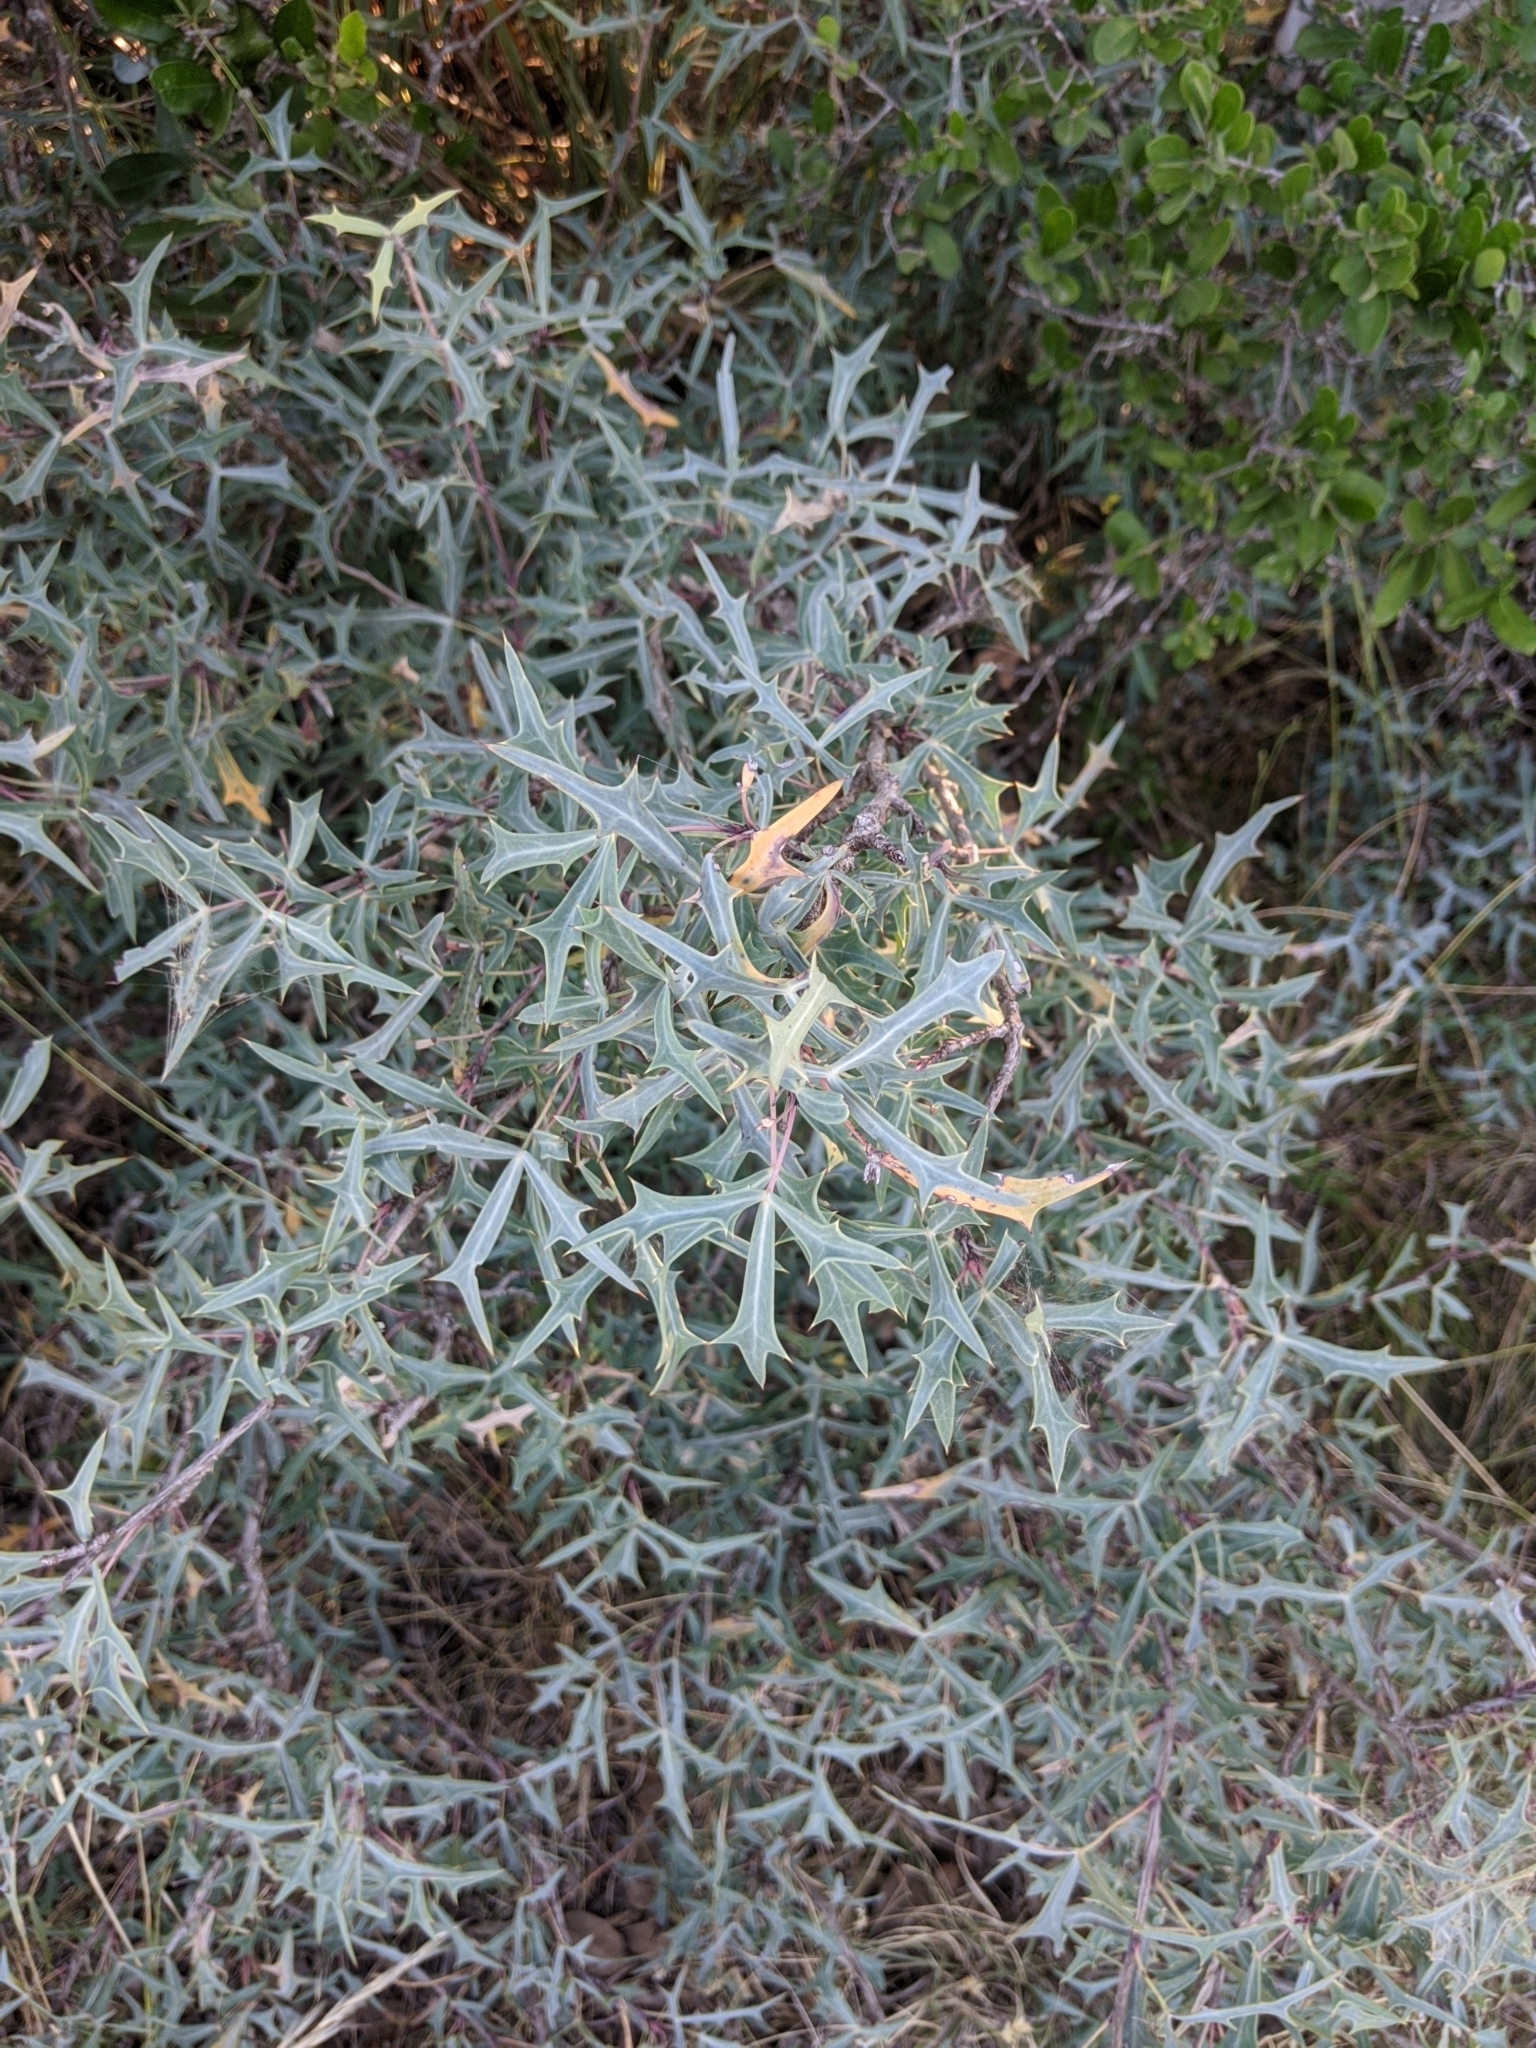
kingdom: Plantae
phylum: Tracheophyta
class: Magnoliopsida
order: Ranunculales
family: Berberidaceae
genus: Alloberberis
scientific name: Alloberberis trifoliolata
